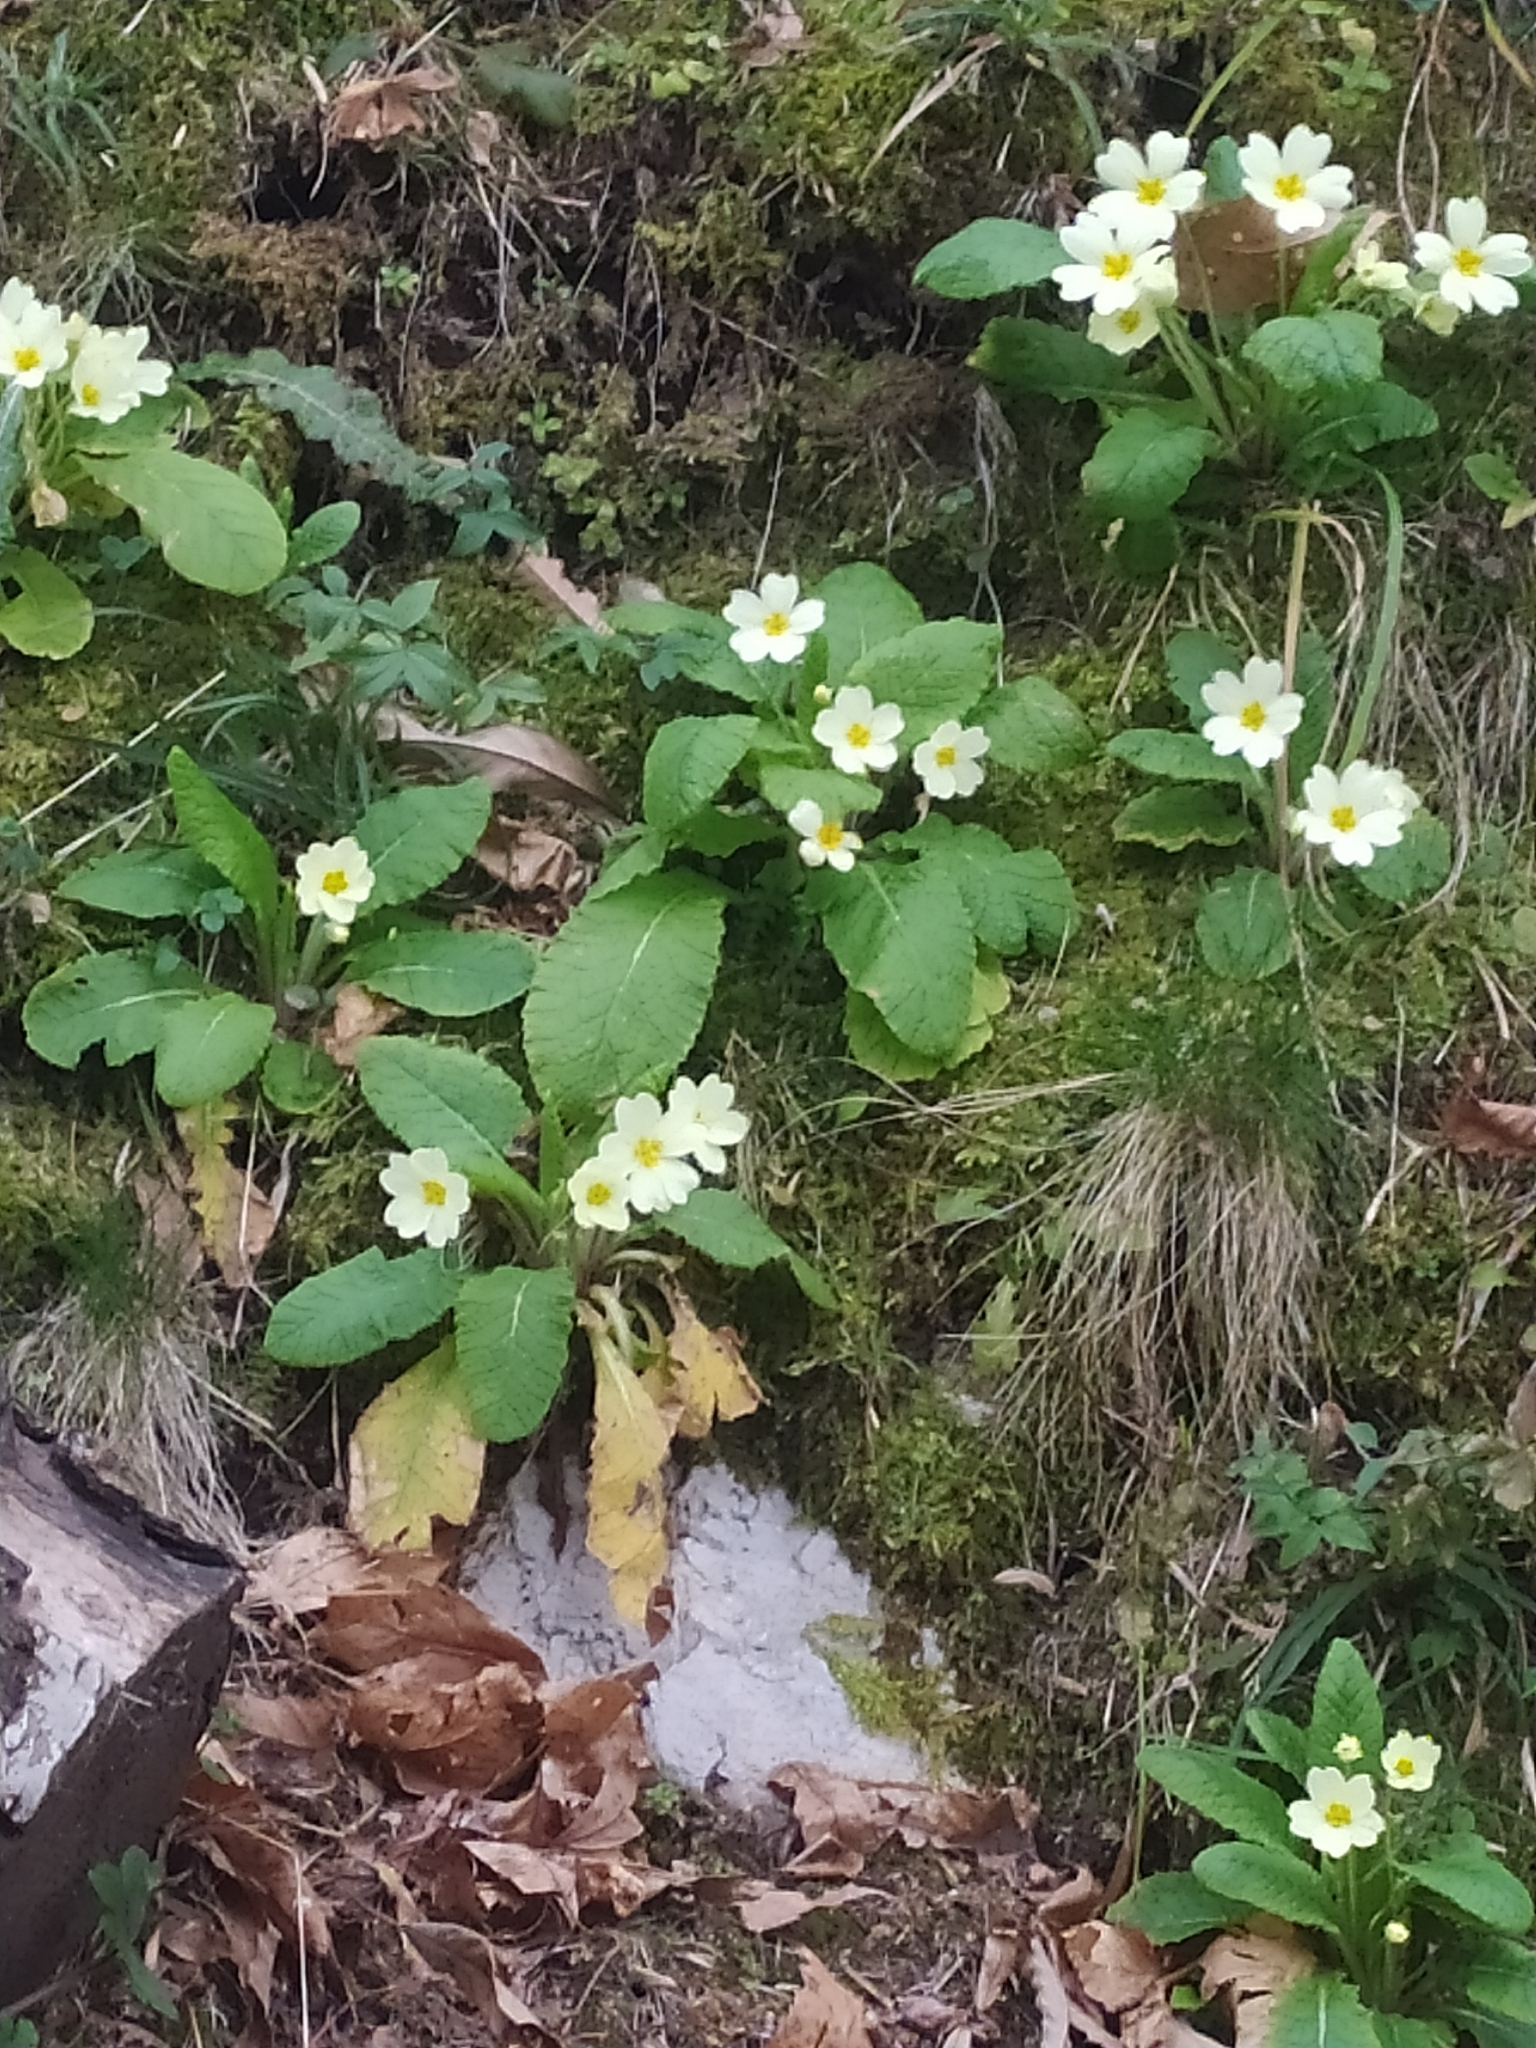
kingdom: Plantae
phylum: Tracheophyta
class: Magnoliopsida
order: Ericales
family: Primulaceae
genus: Primula
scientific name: Primula vulgaris
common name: Primrose
